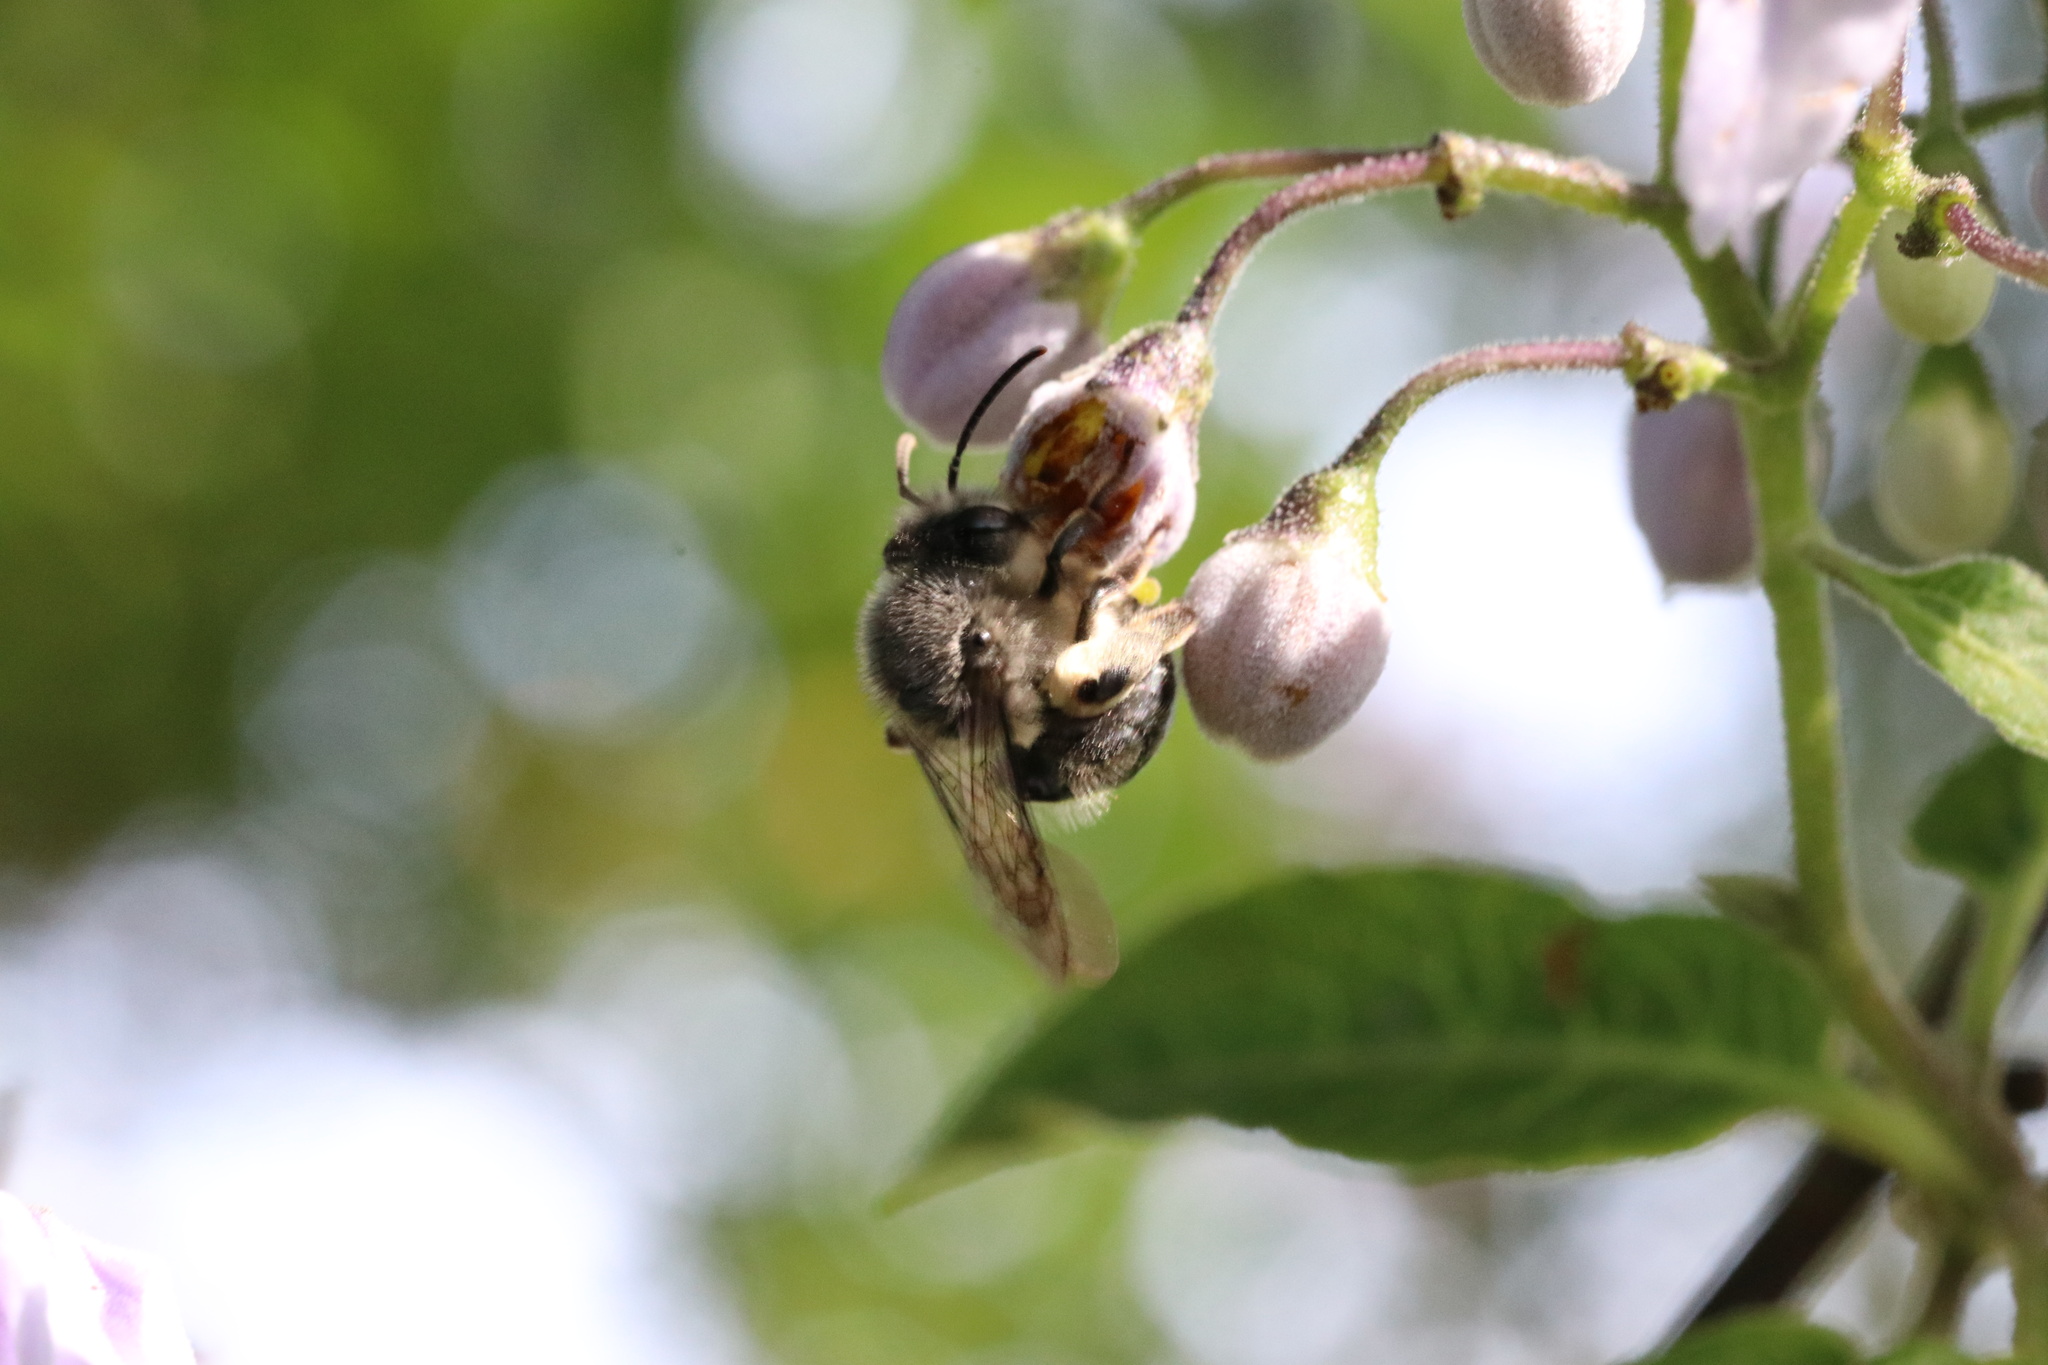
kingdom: Animalia
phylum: Arthropoda
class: Insecta
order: Hymenoptera
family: Colletidae
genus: Cadeguala
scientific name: Cadeguala albopilosa
